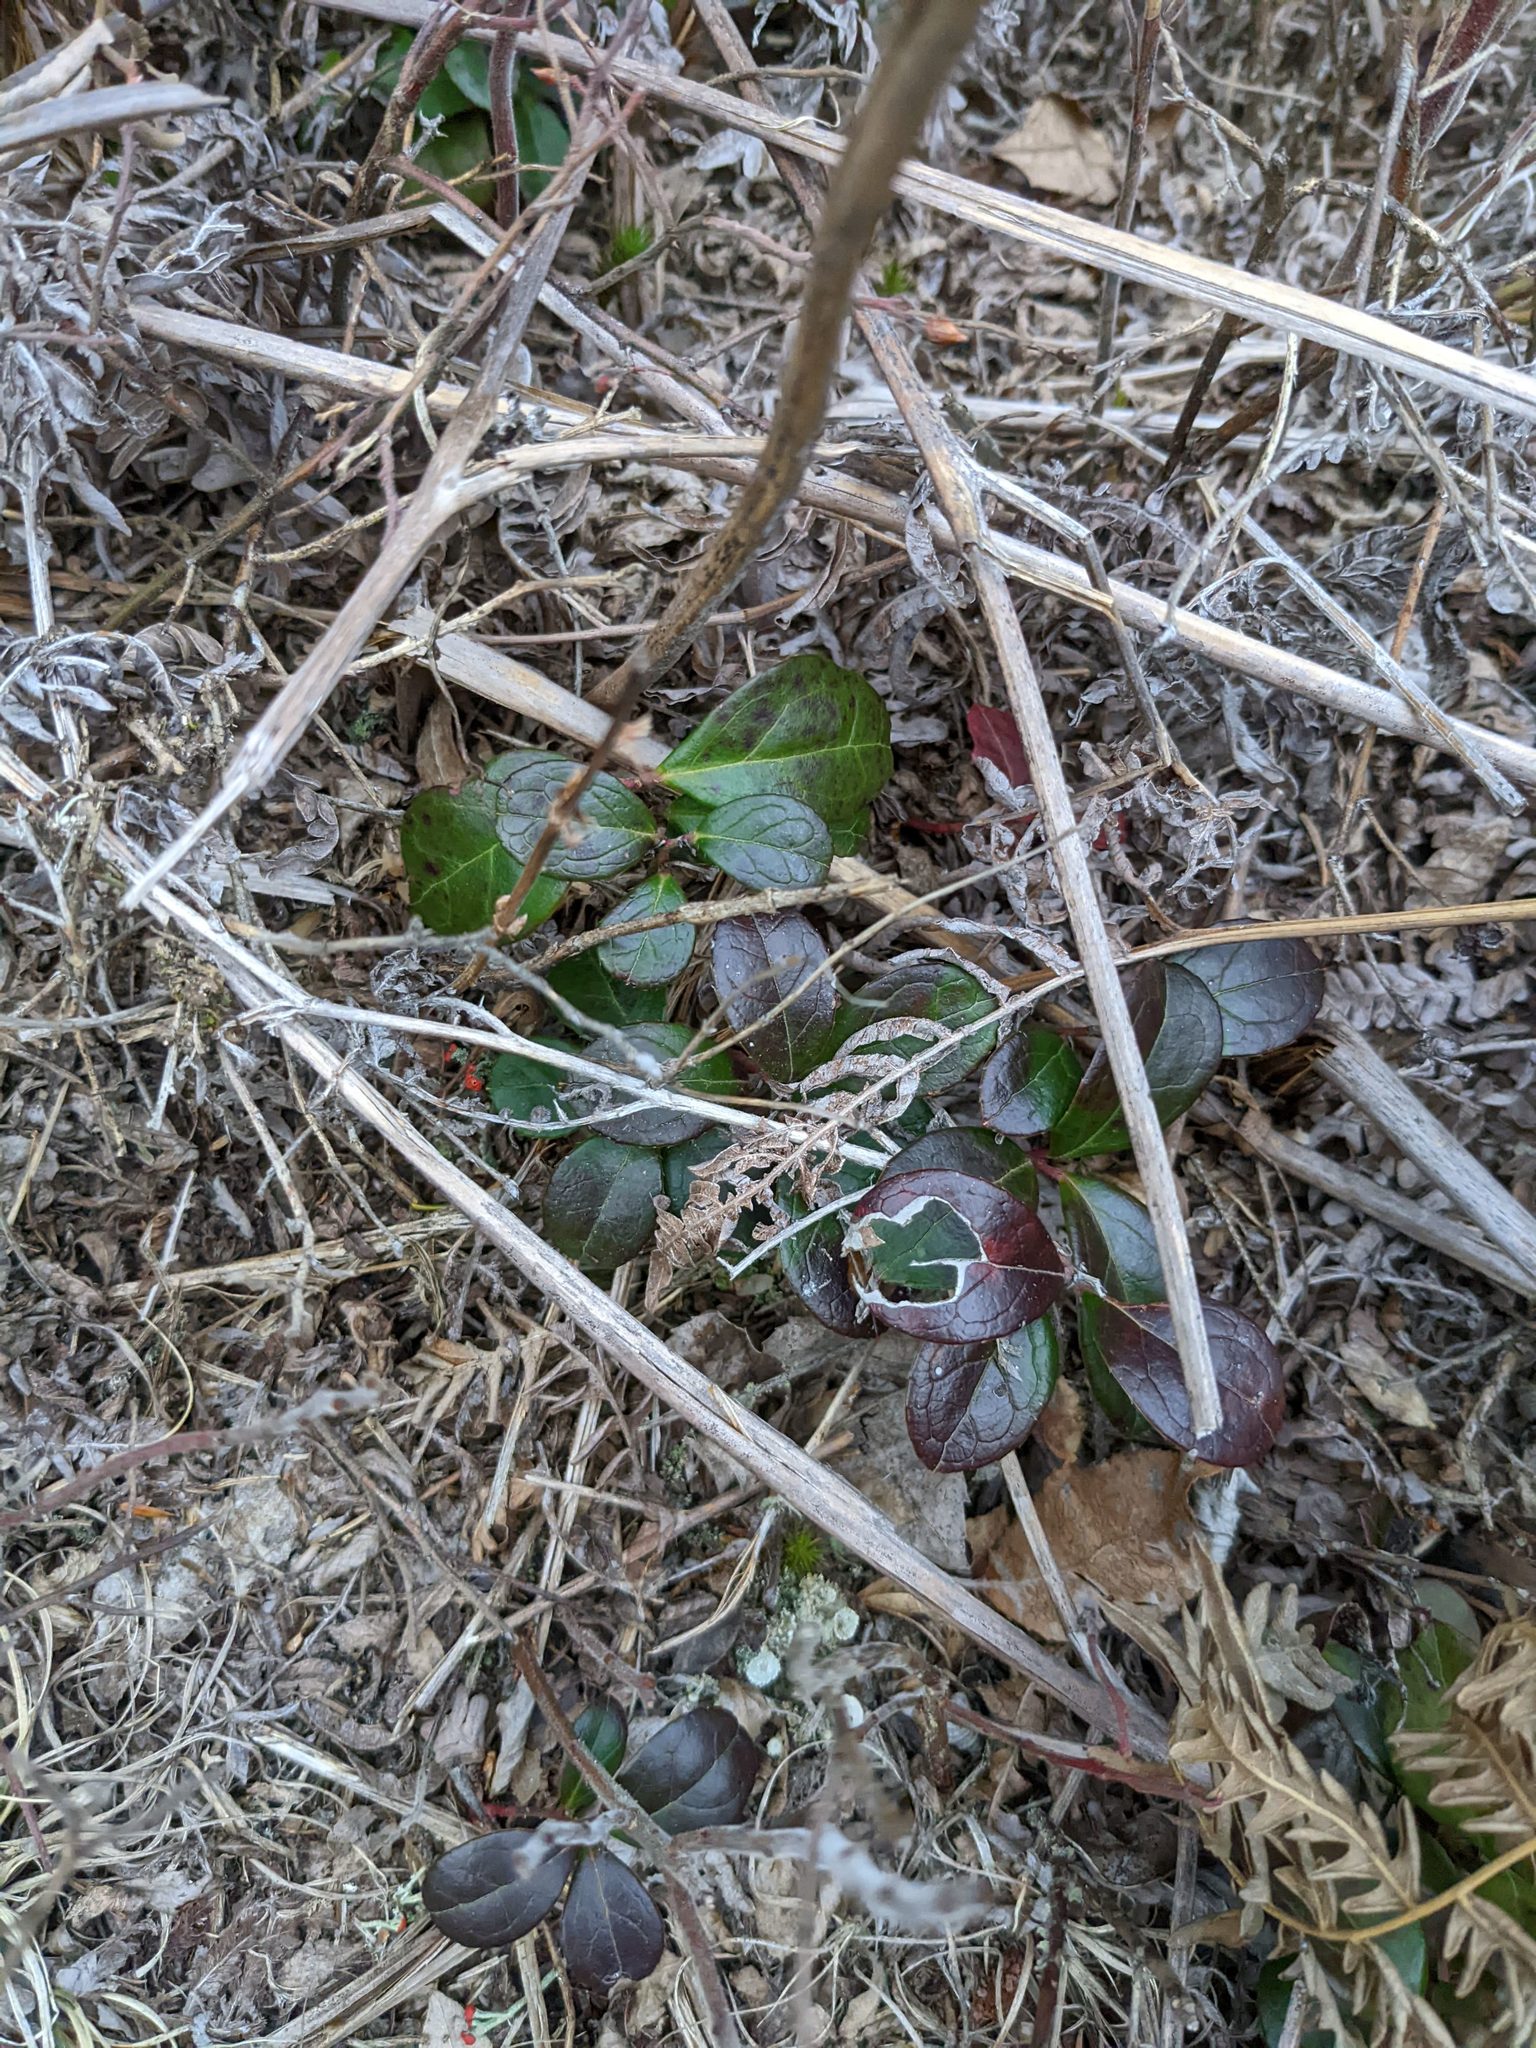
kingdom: Plantae
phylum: Tracheophyta
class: Magnoliopsida
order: Ericales
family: Ericaceae
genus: Gaultheria
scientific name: Gaultheria procumbens
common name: Checkerberry
